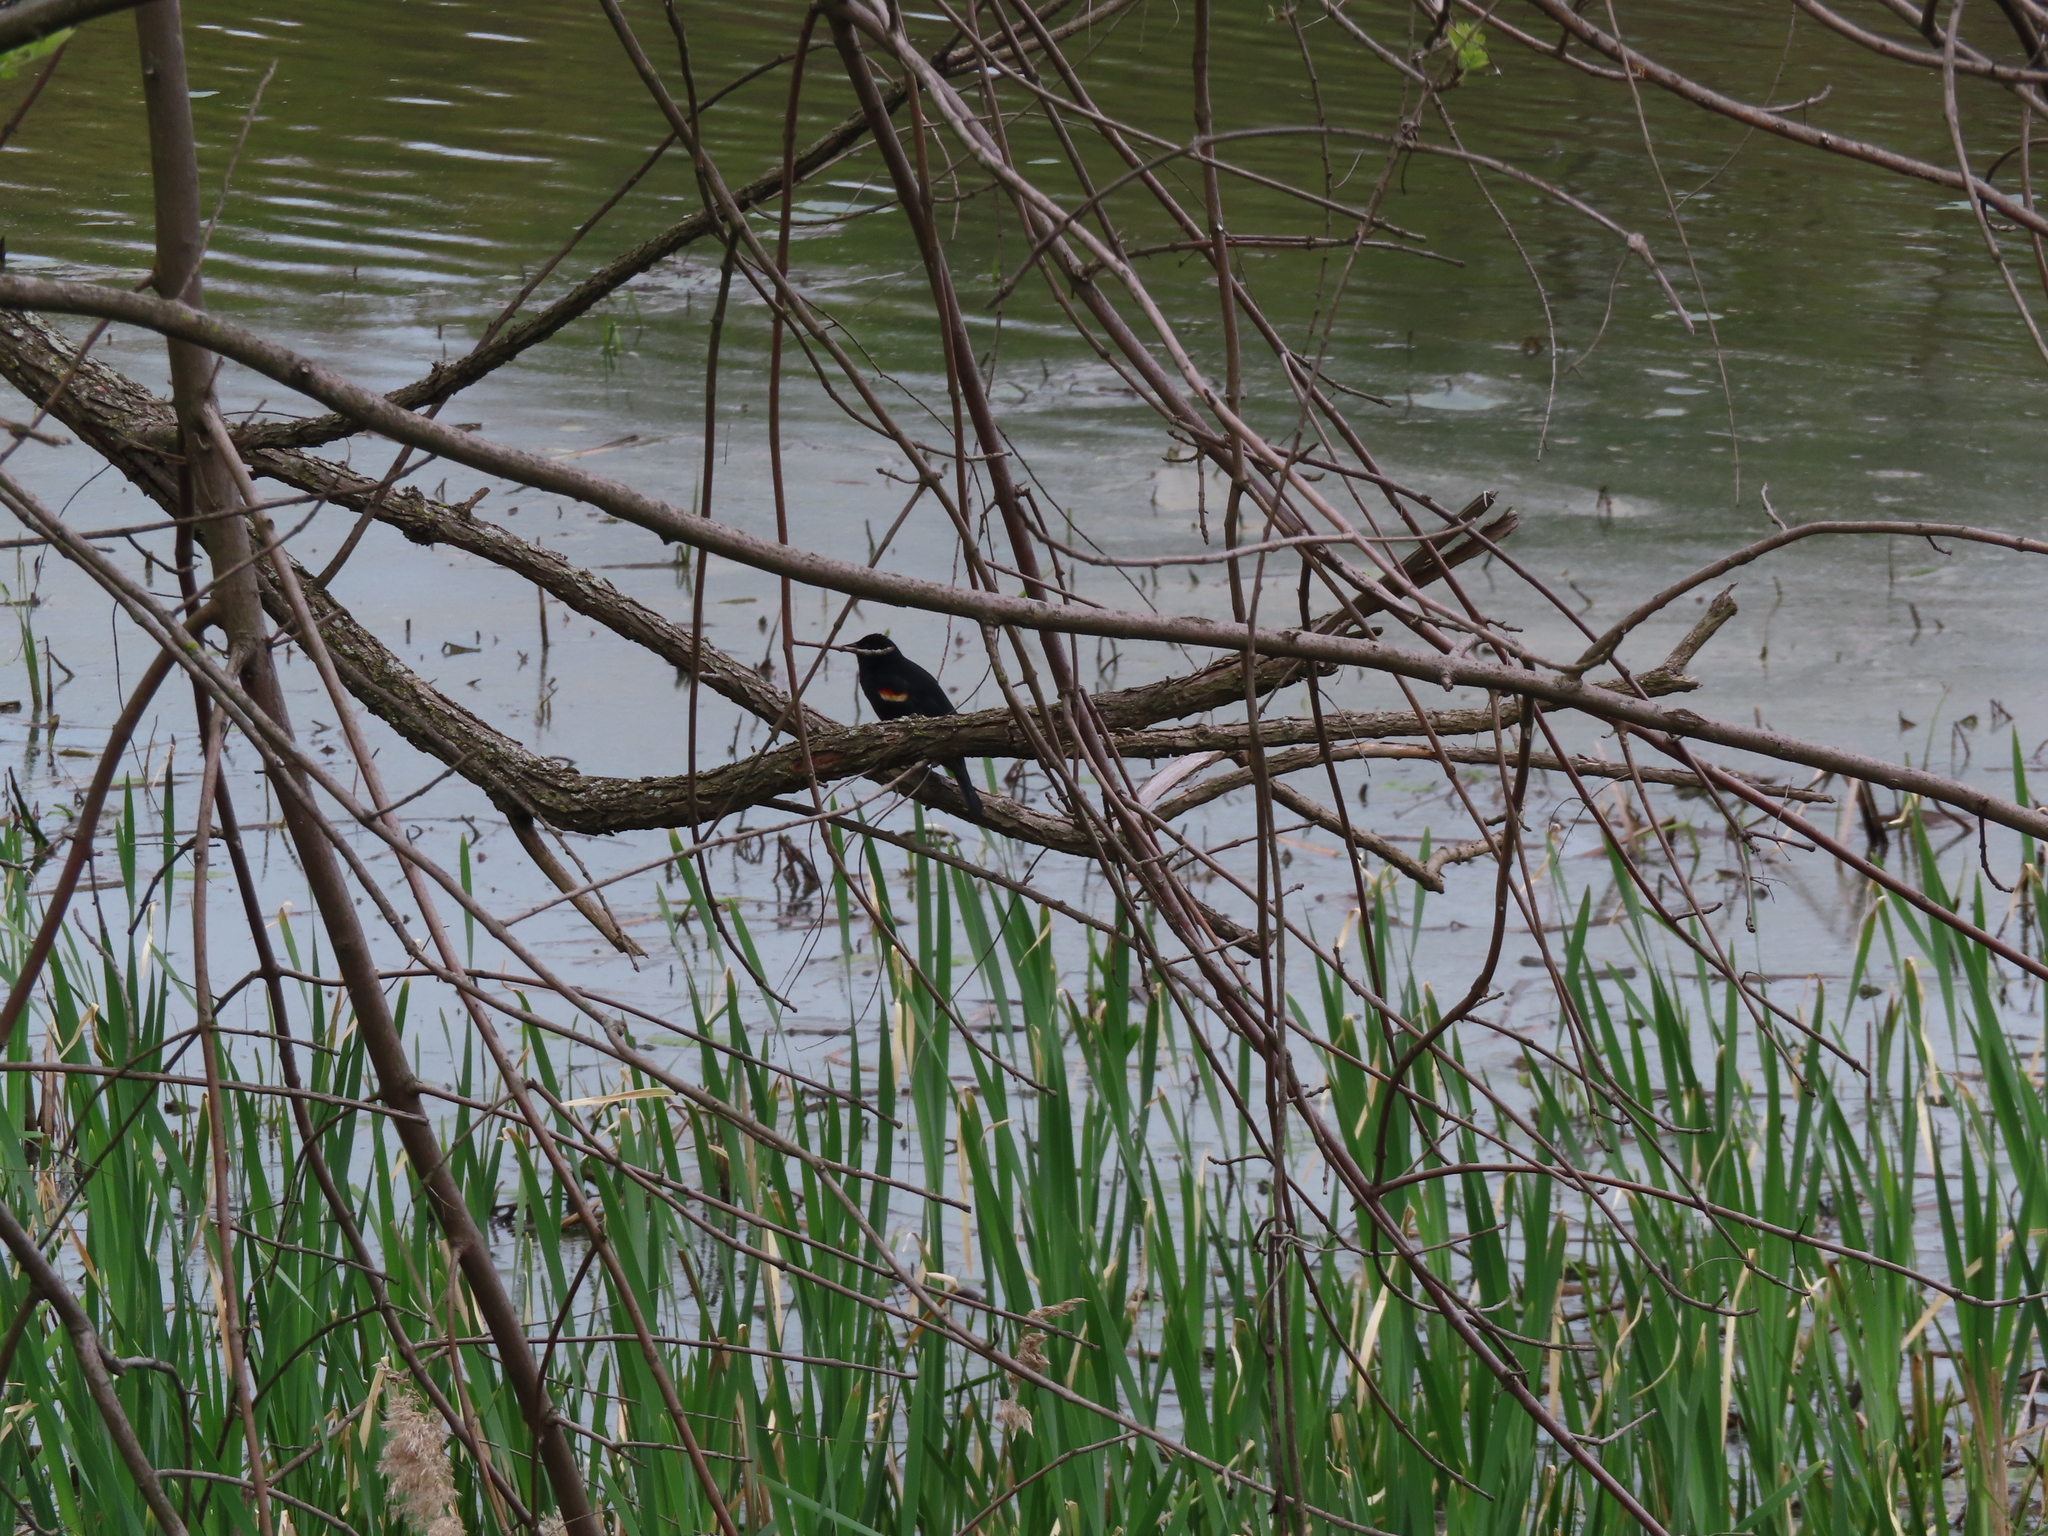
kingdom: Animalia
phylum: Chordata
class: Aves
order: Passeriformes
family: Icteridae
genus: Agelaius
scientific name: Agelaius phoeniceus
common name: Red-winged blackbird
